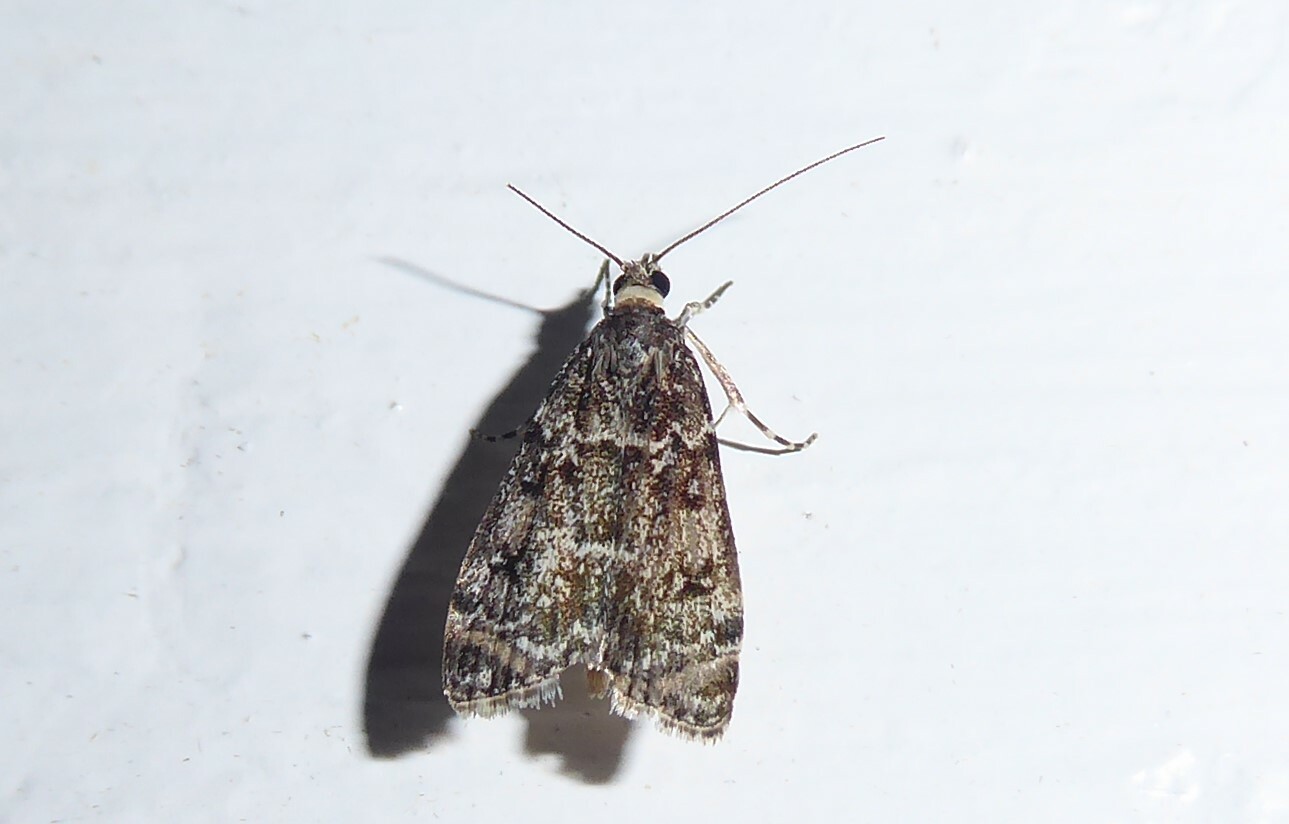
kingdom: Animalia
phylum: Arthropoda
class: Insecta
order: Lepidoptera
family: Crambidae
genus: Eudonia
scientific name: Eudonia philerga
